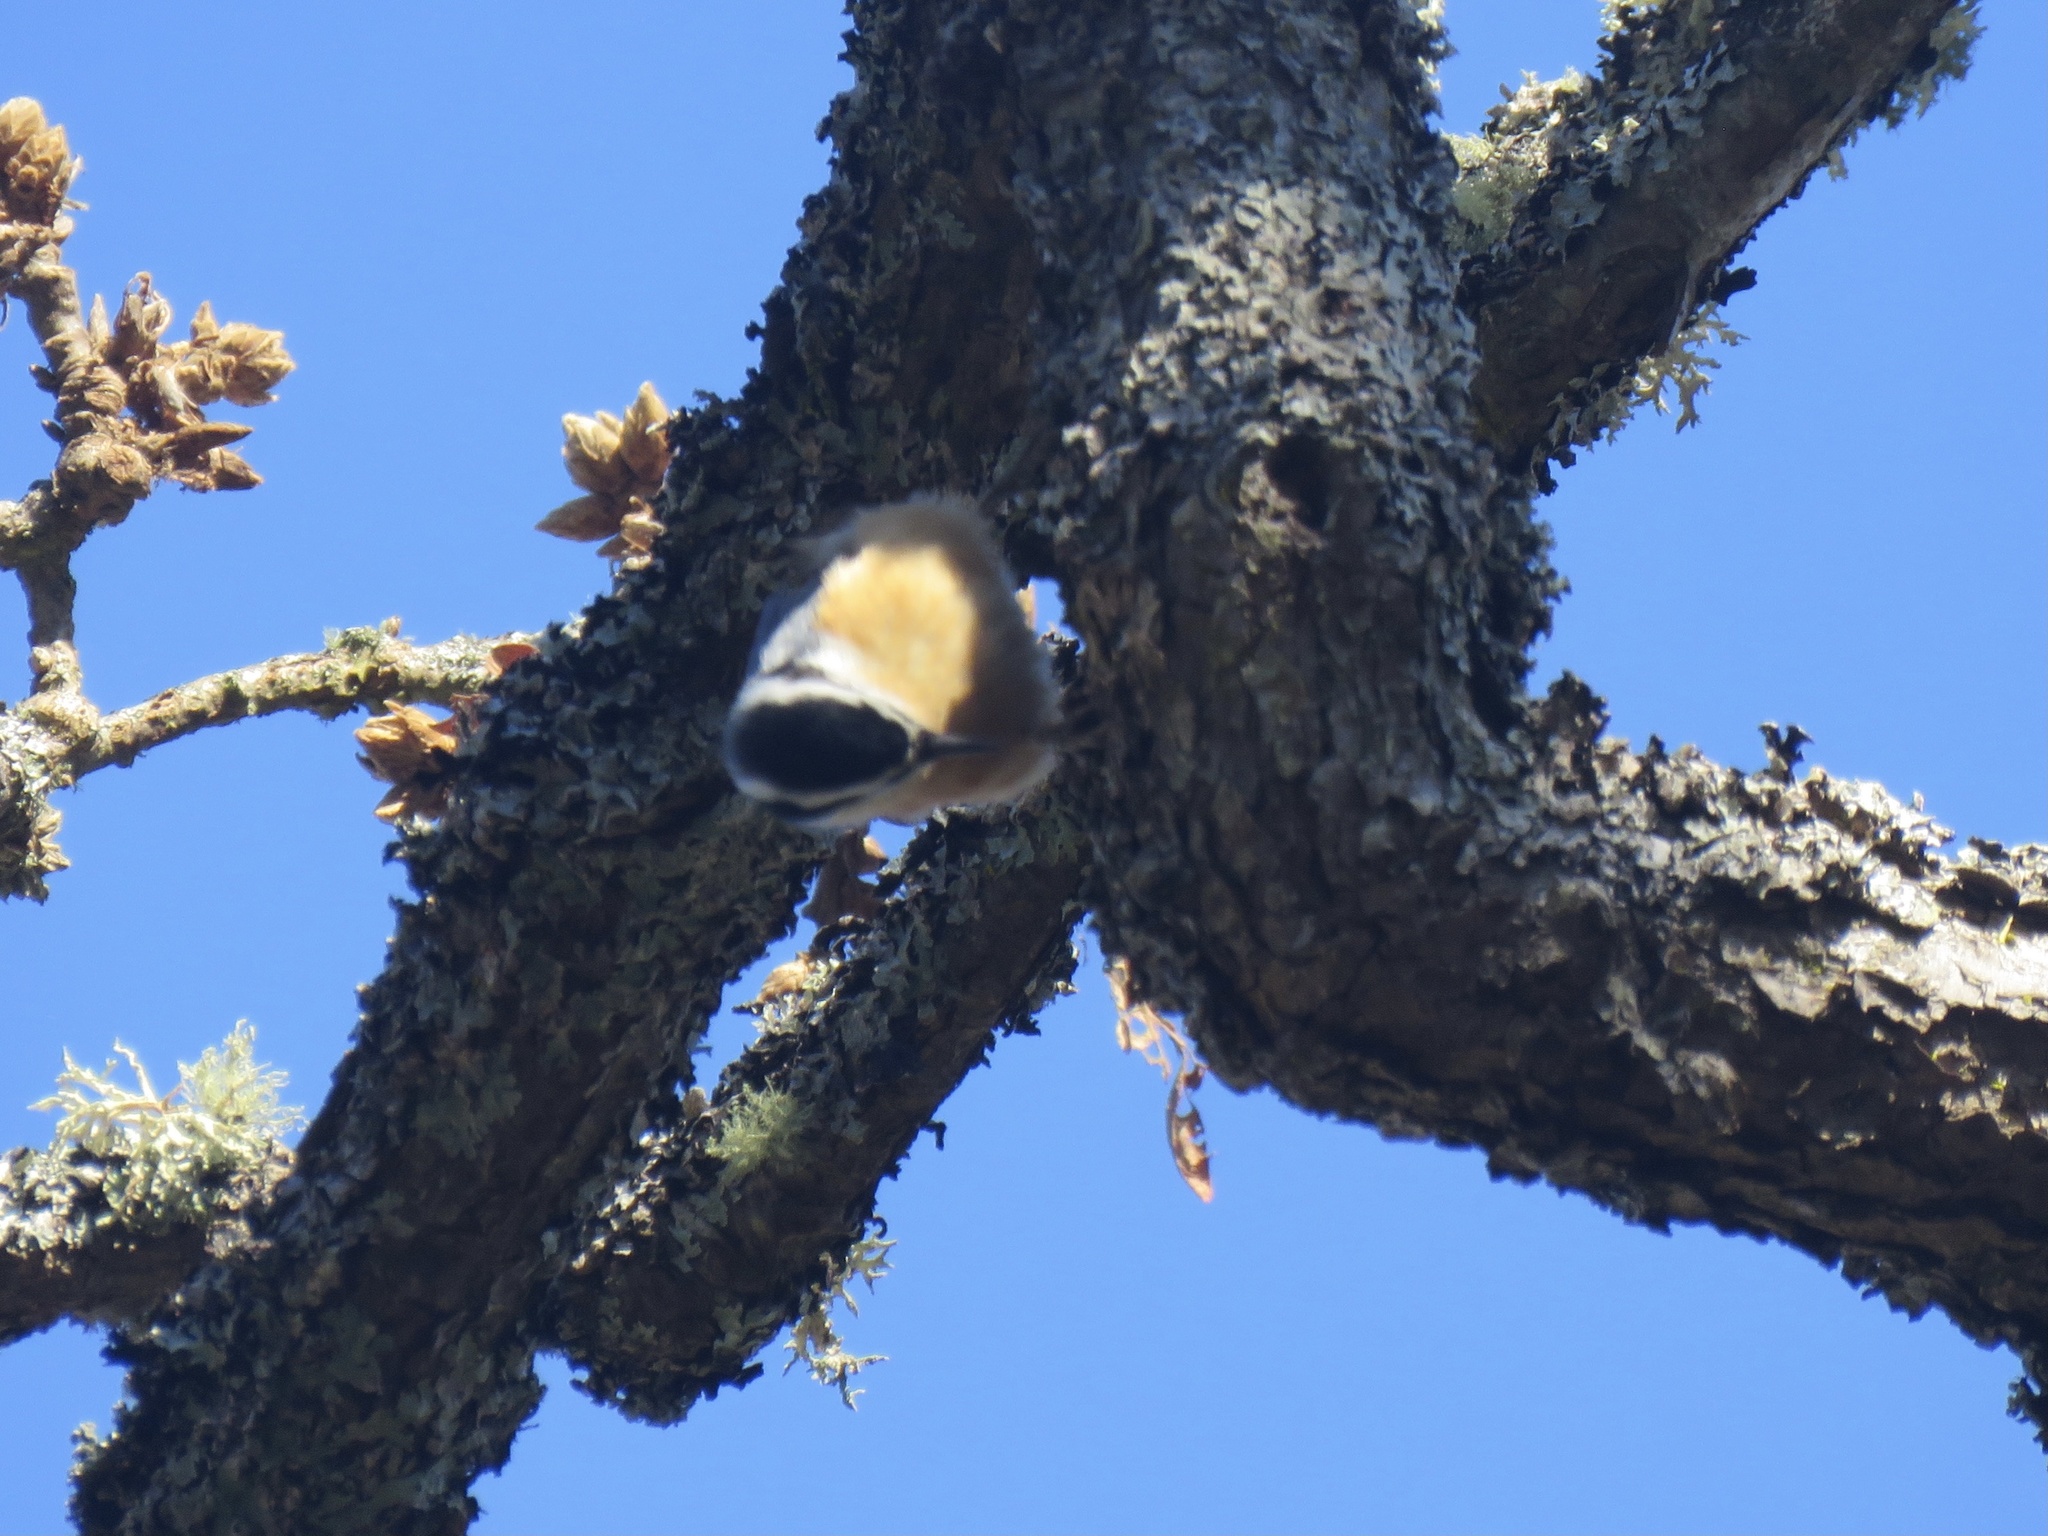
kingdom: Animalia
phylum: Chordata
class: Aves
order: Passeriformes
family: Sittidae
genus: Sitta
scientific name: Sitta canadensis
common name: Red-breasted nuthatch
